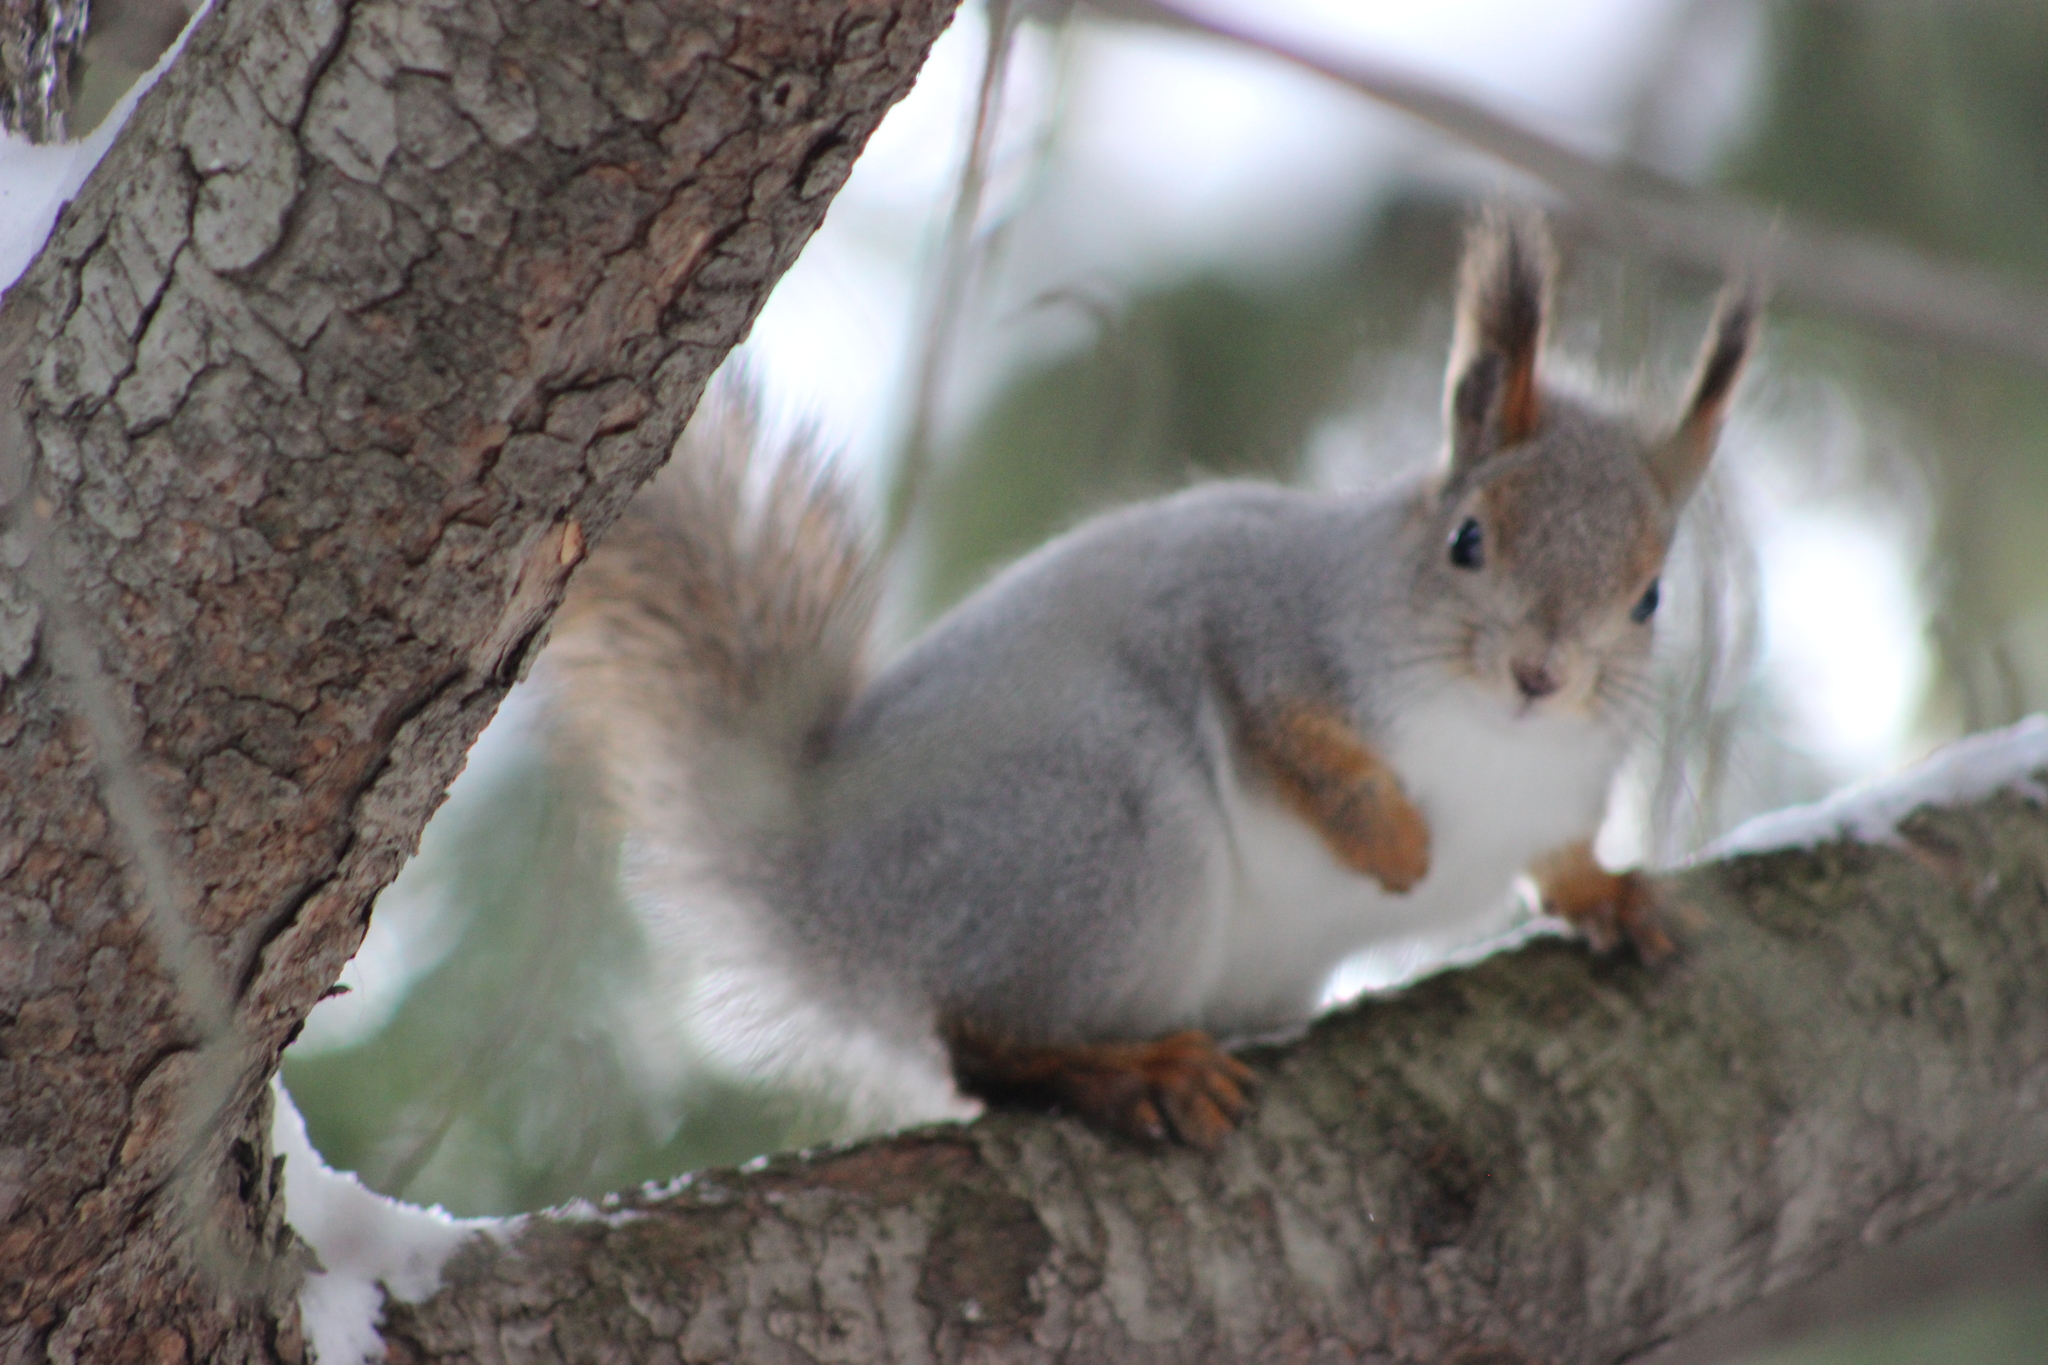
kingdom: Animalia
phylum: Chordata
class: Mammalia
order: Rodentia
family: Sciuridae
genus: Sciurus
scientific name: Sciurus vulgaris
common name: Eurasian red squirrel
